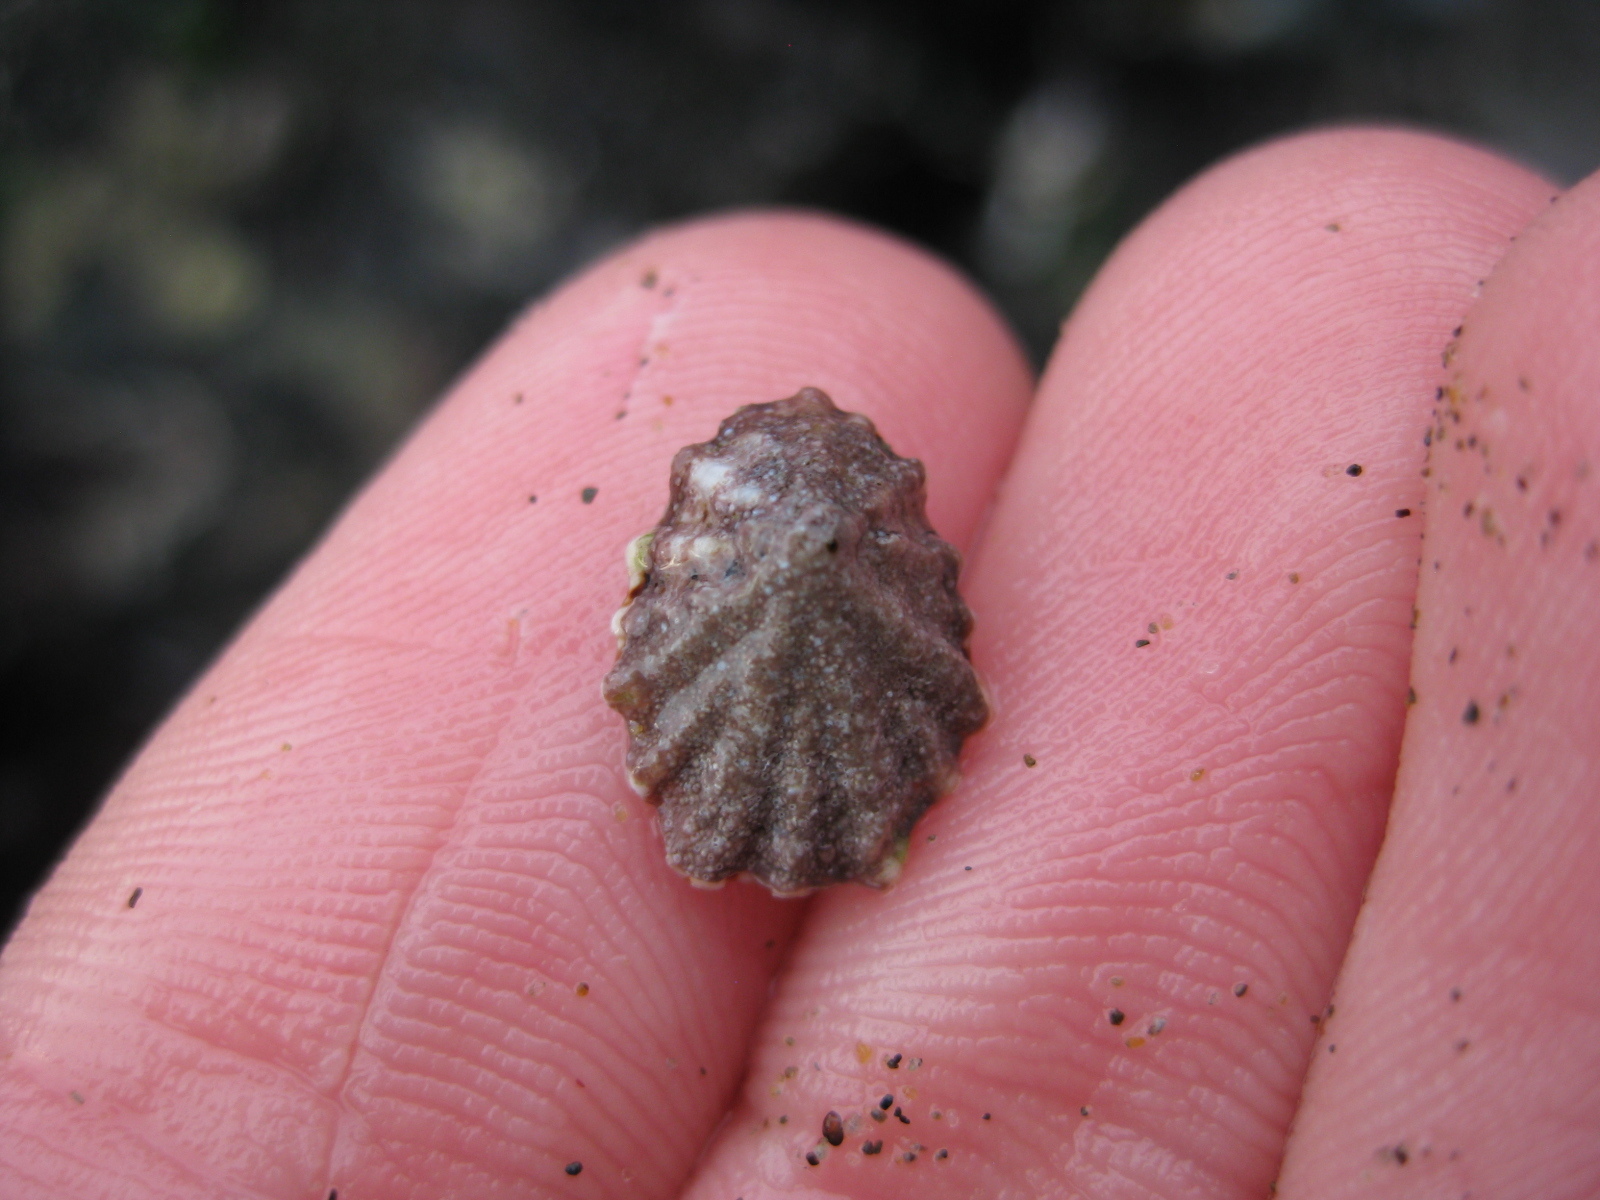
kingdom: Animalia
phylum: Mollusca
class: Gastropoda
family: Lottiidae
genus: Patelloida
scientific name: Patelloida corticata
